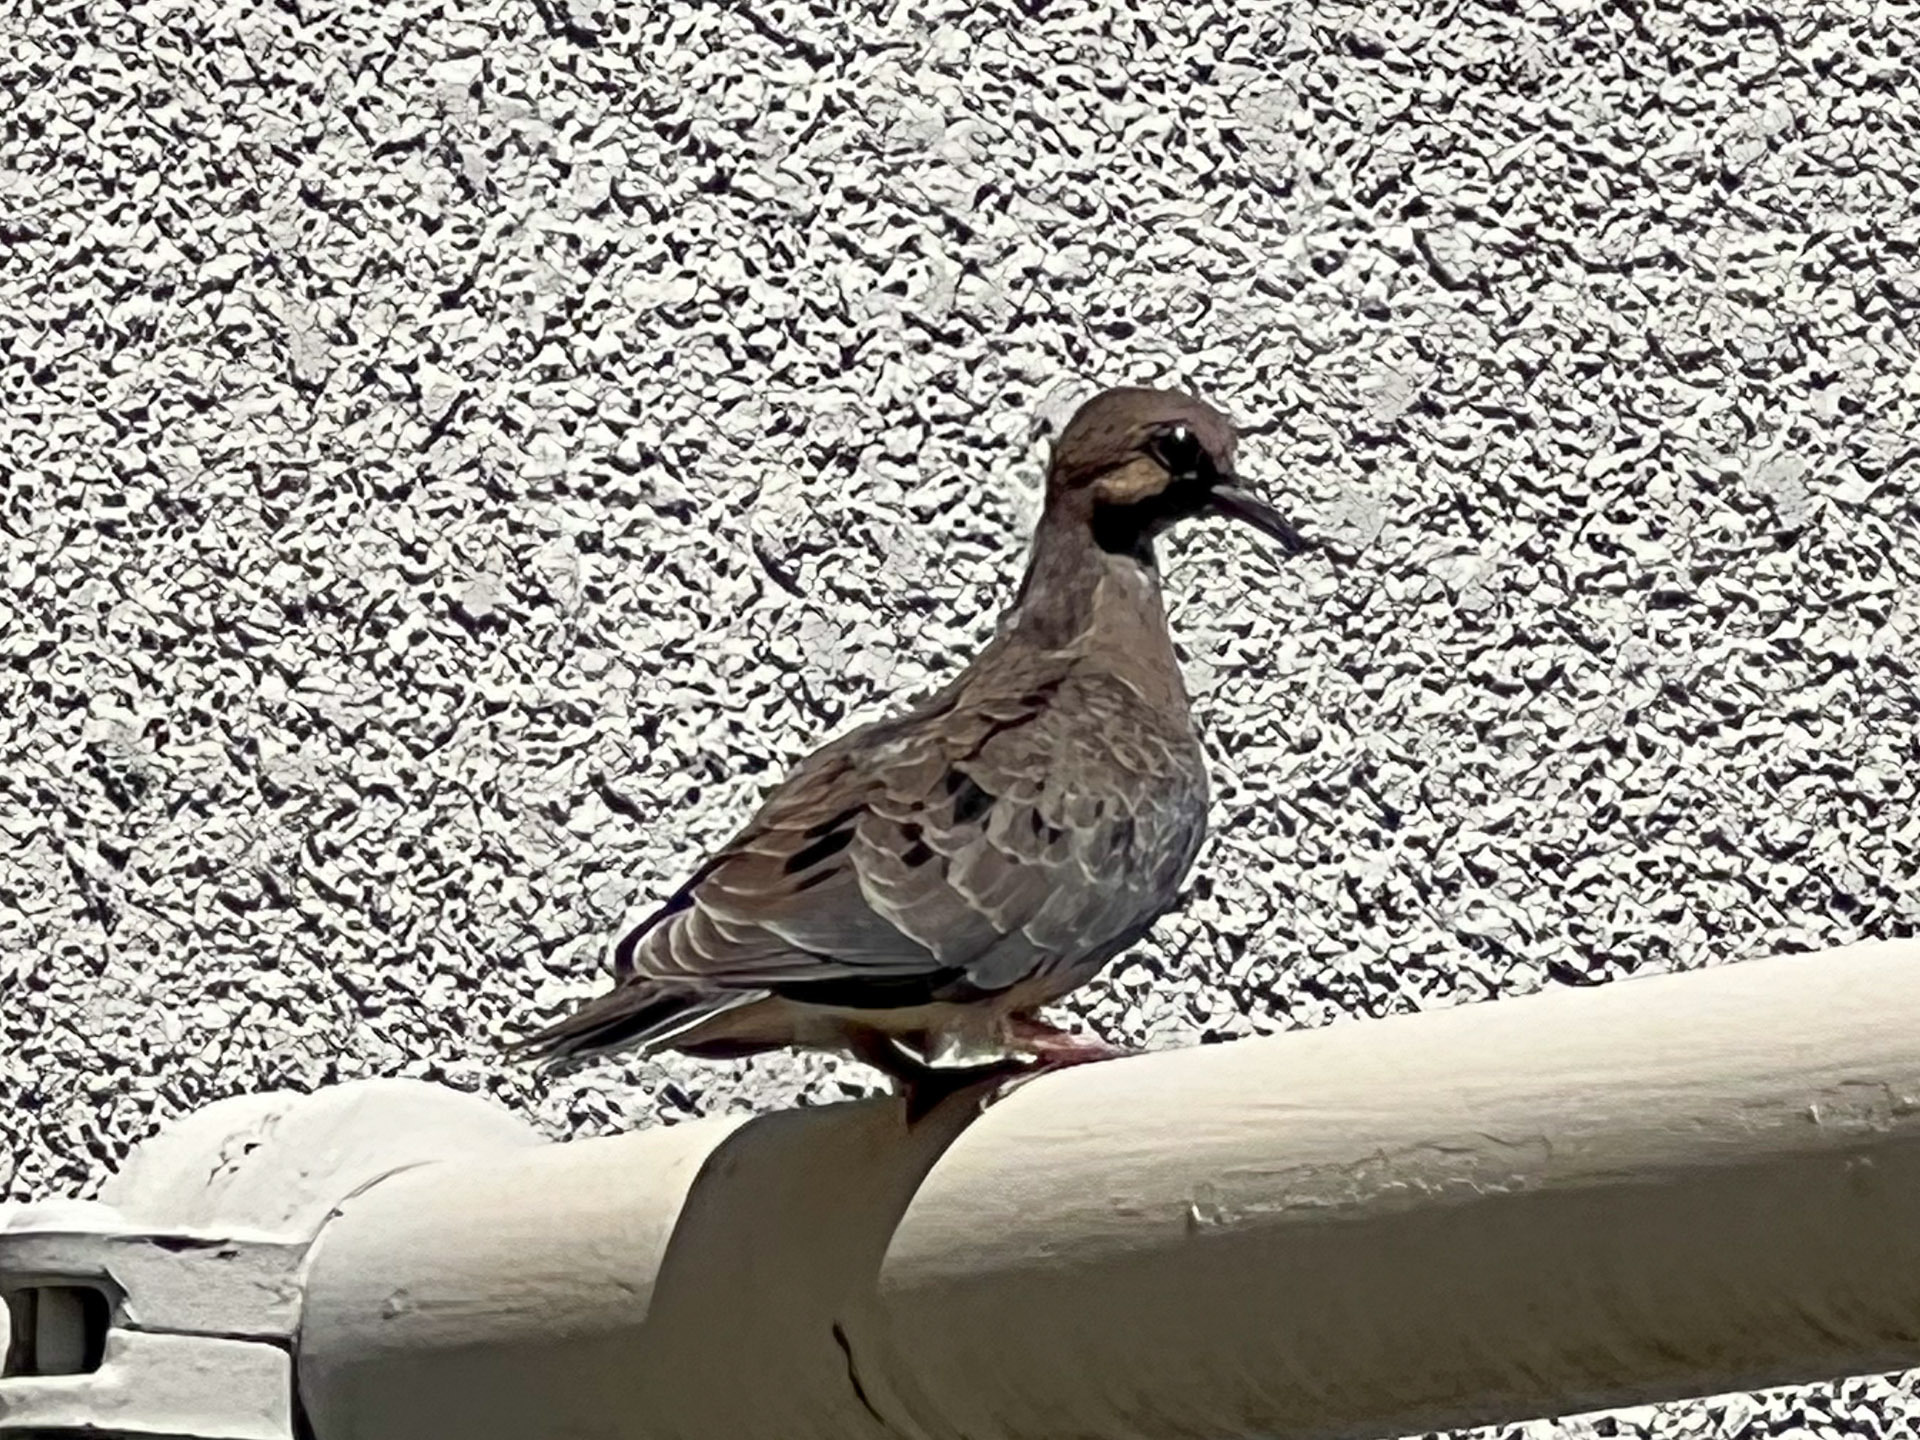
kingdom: Animalia
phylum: Chordata
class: Aves
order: Columbiformes
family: Columbidae
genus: Zenaida
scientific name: Zenaida macroura
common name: Mourning dove
